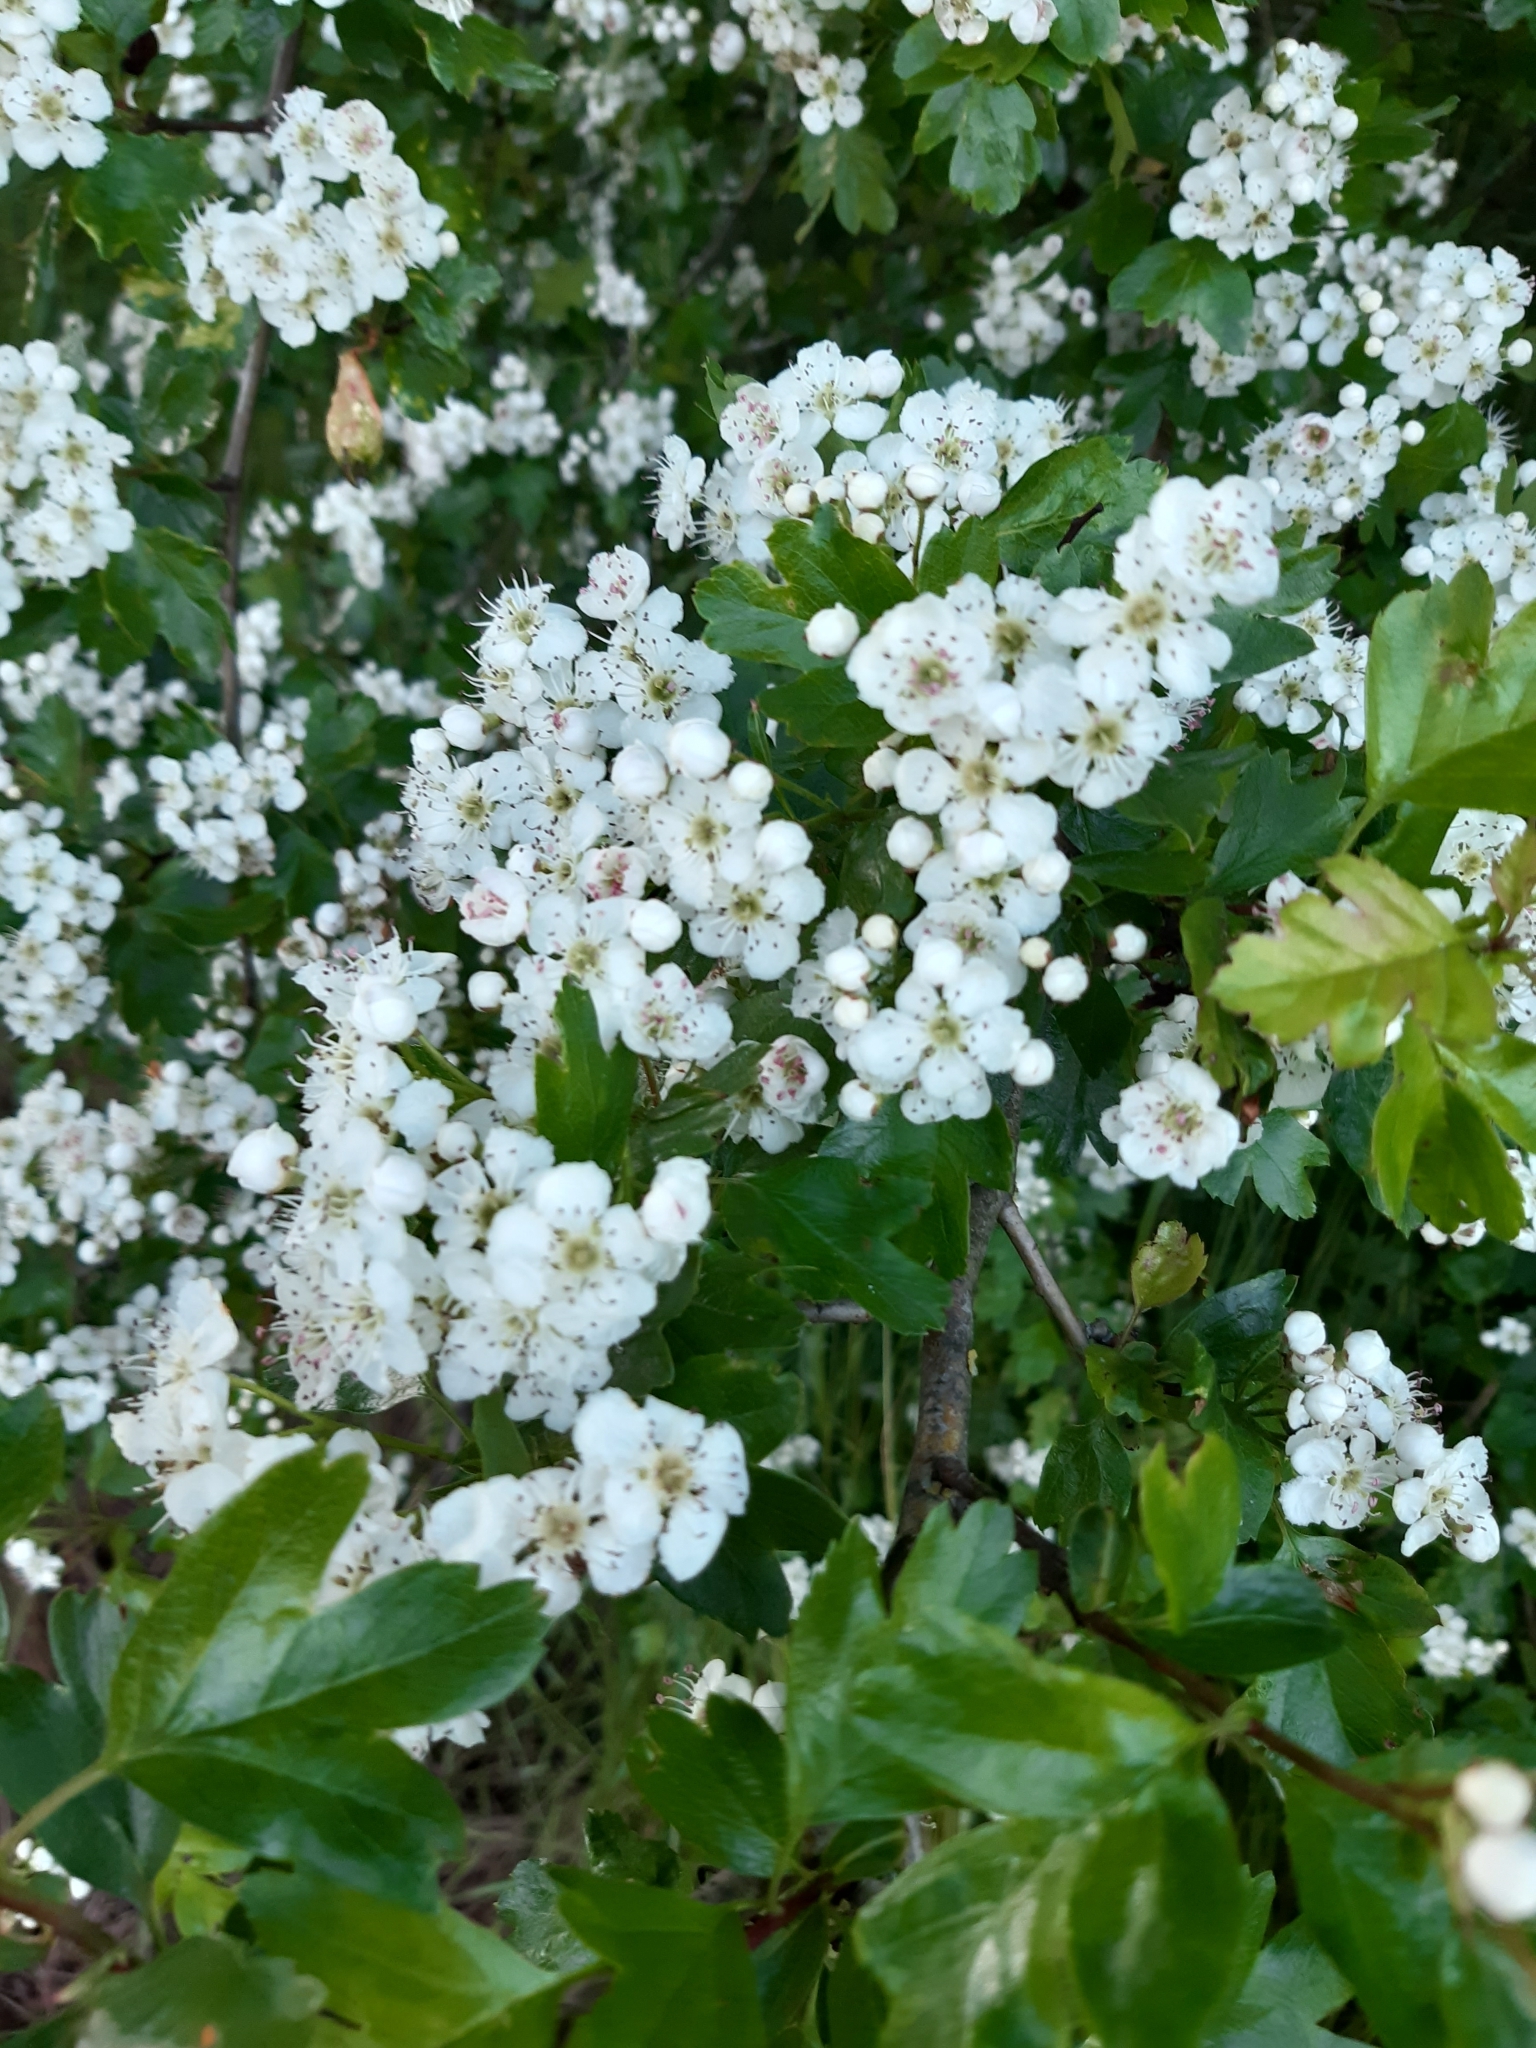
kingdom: Plantae
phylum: Tracheophyta
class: Magnoliopsida
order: Rosales
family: Rosaceae
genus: Crataegus
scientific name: Crataegus monogyna
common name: Hawthorn
